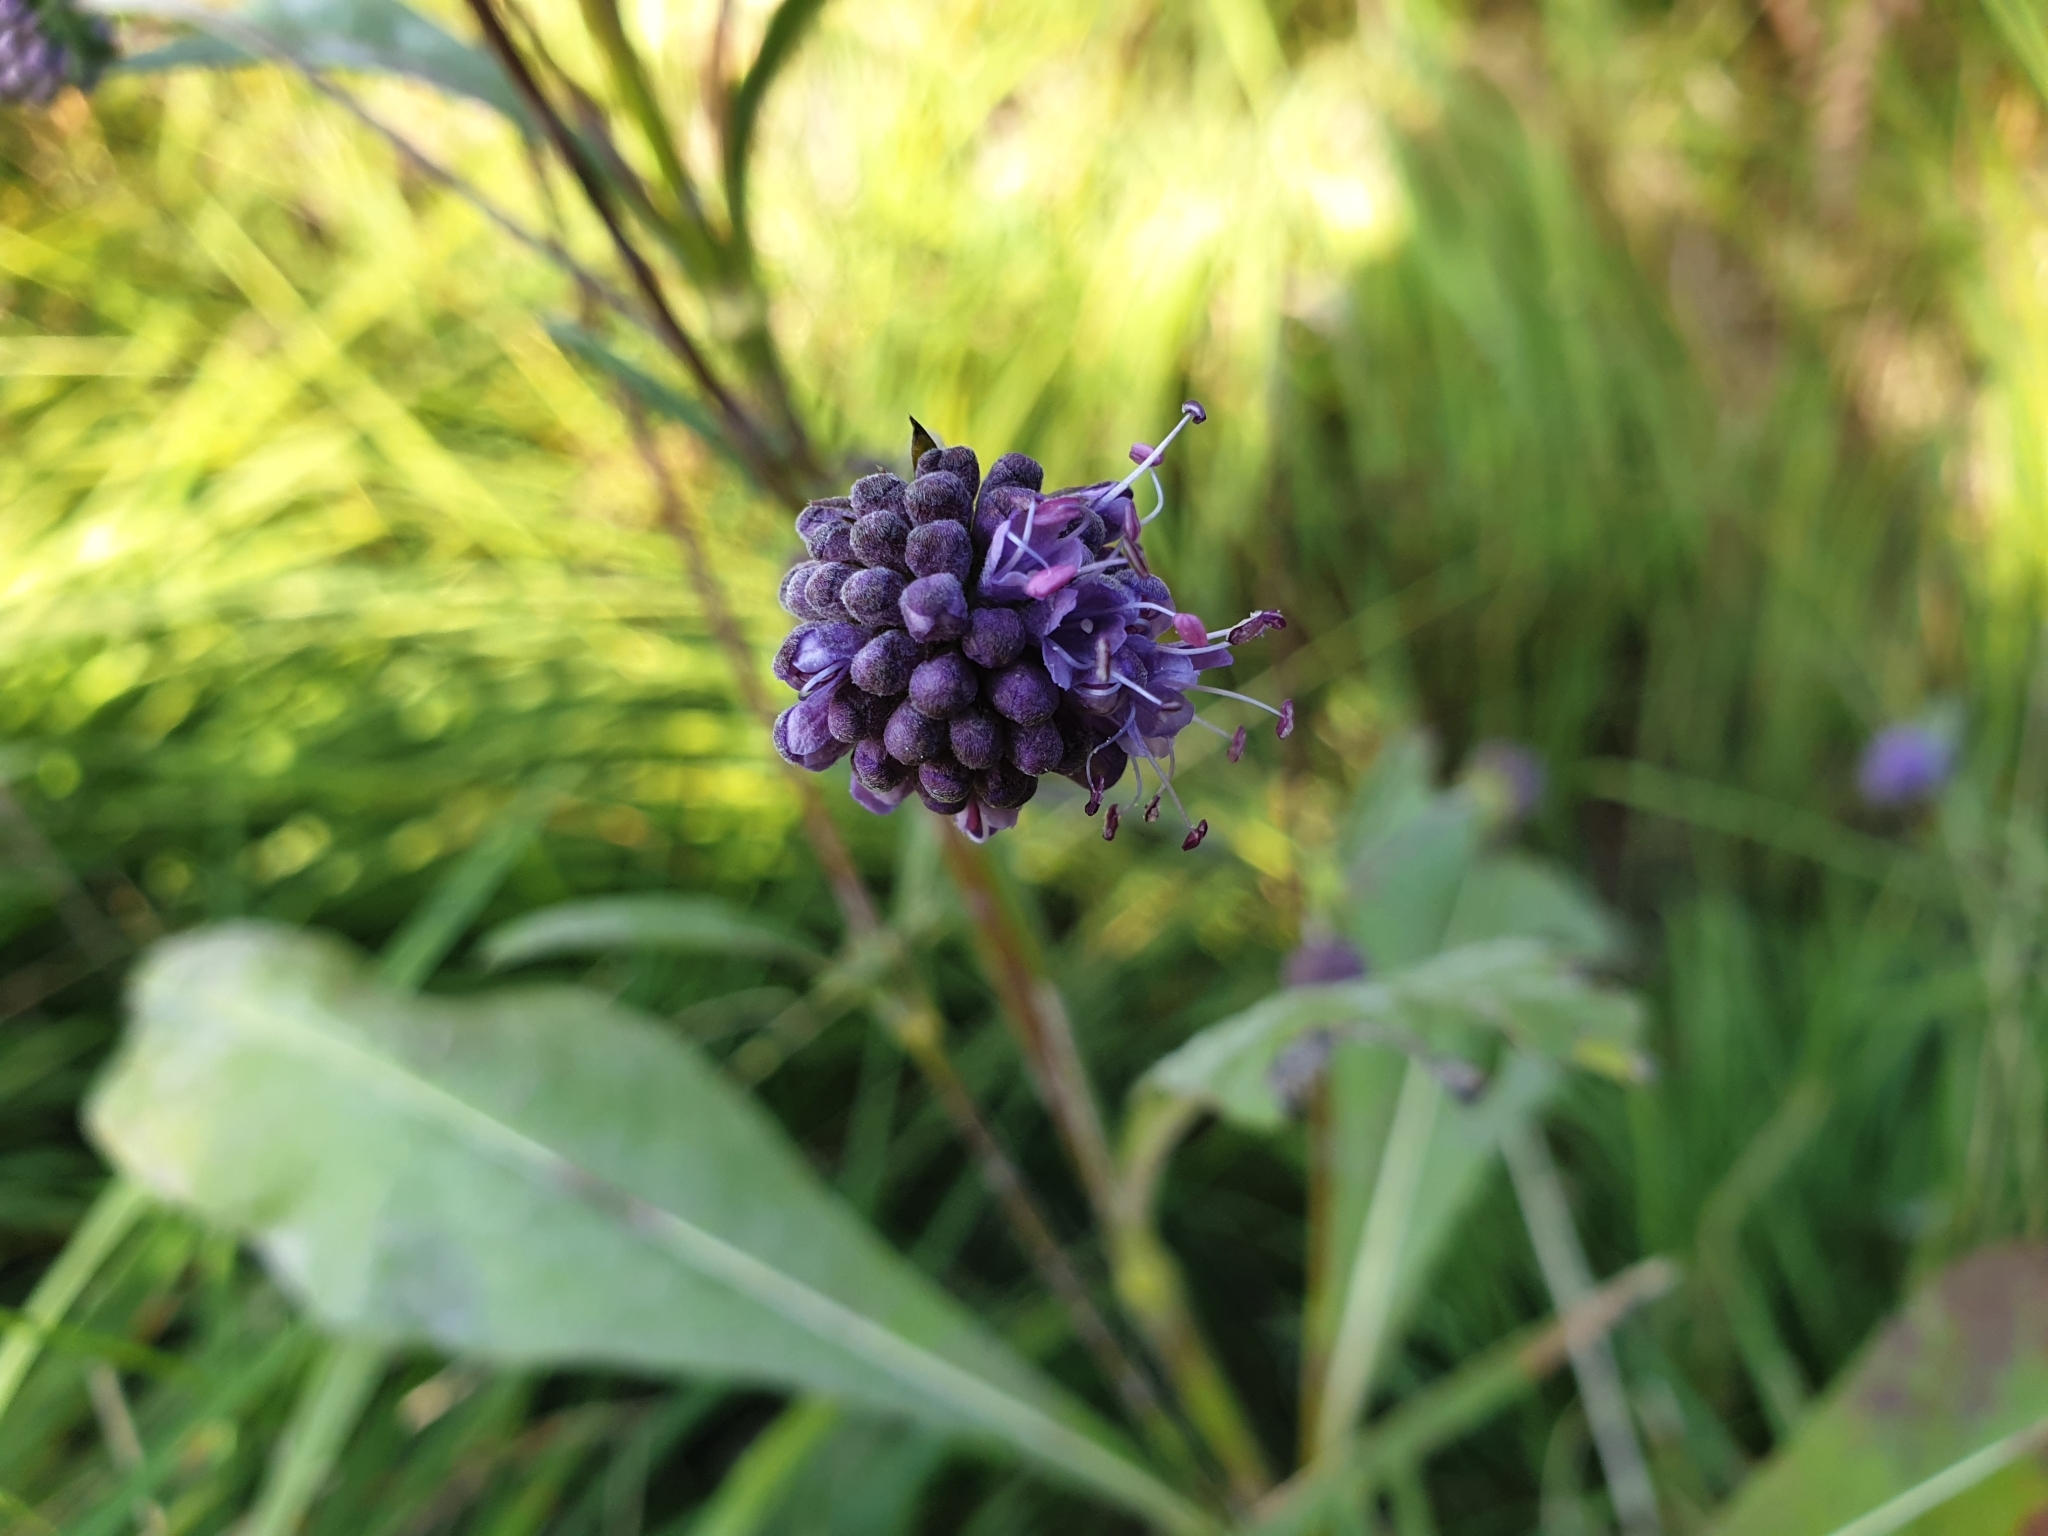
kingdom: Plantae
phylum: Tracheophyta
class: Magnoliopsida
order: Dipsacales
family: Caprifoliaceae
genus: Succisa
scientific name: Succisa pratensis
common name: Devil's-bit
